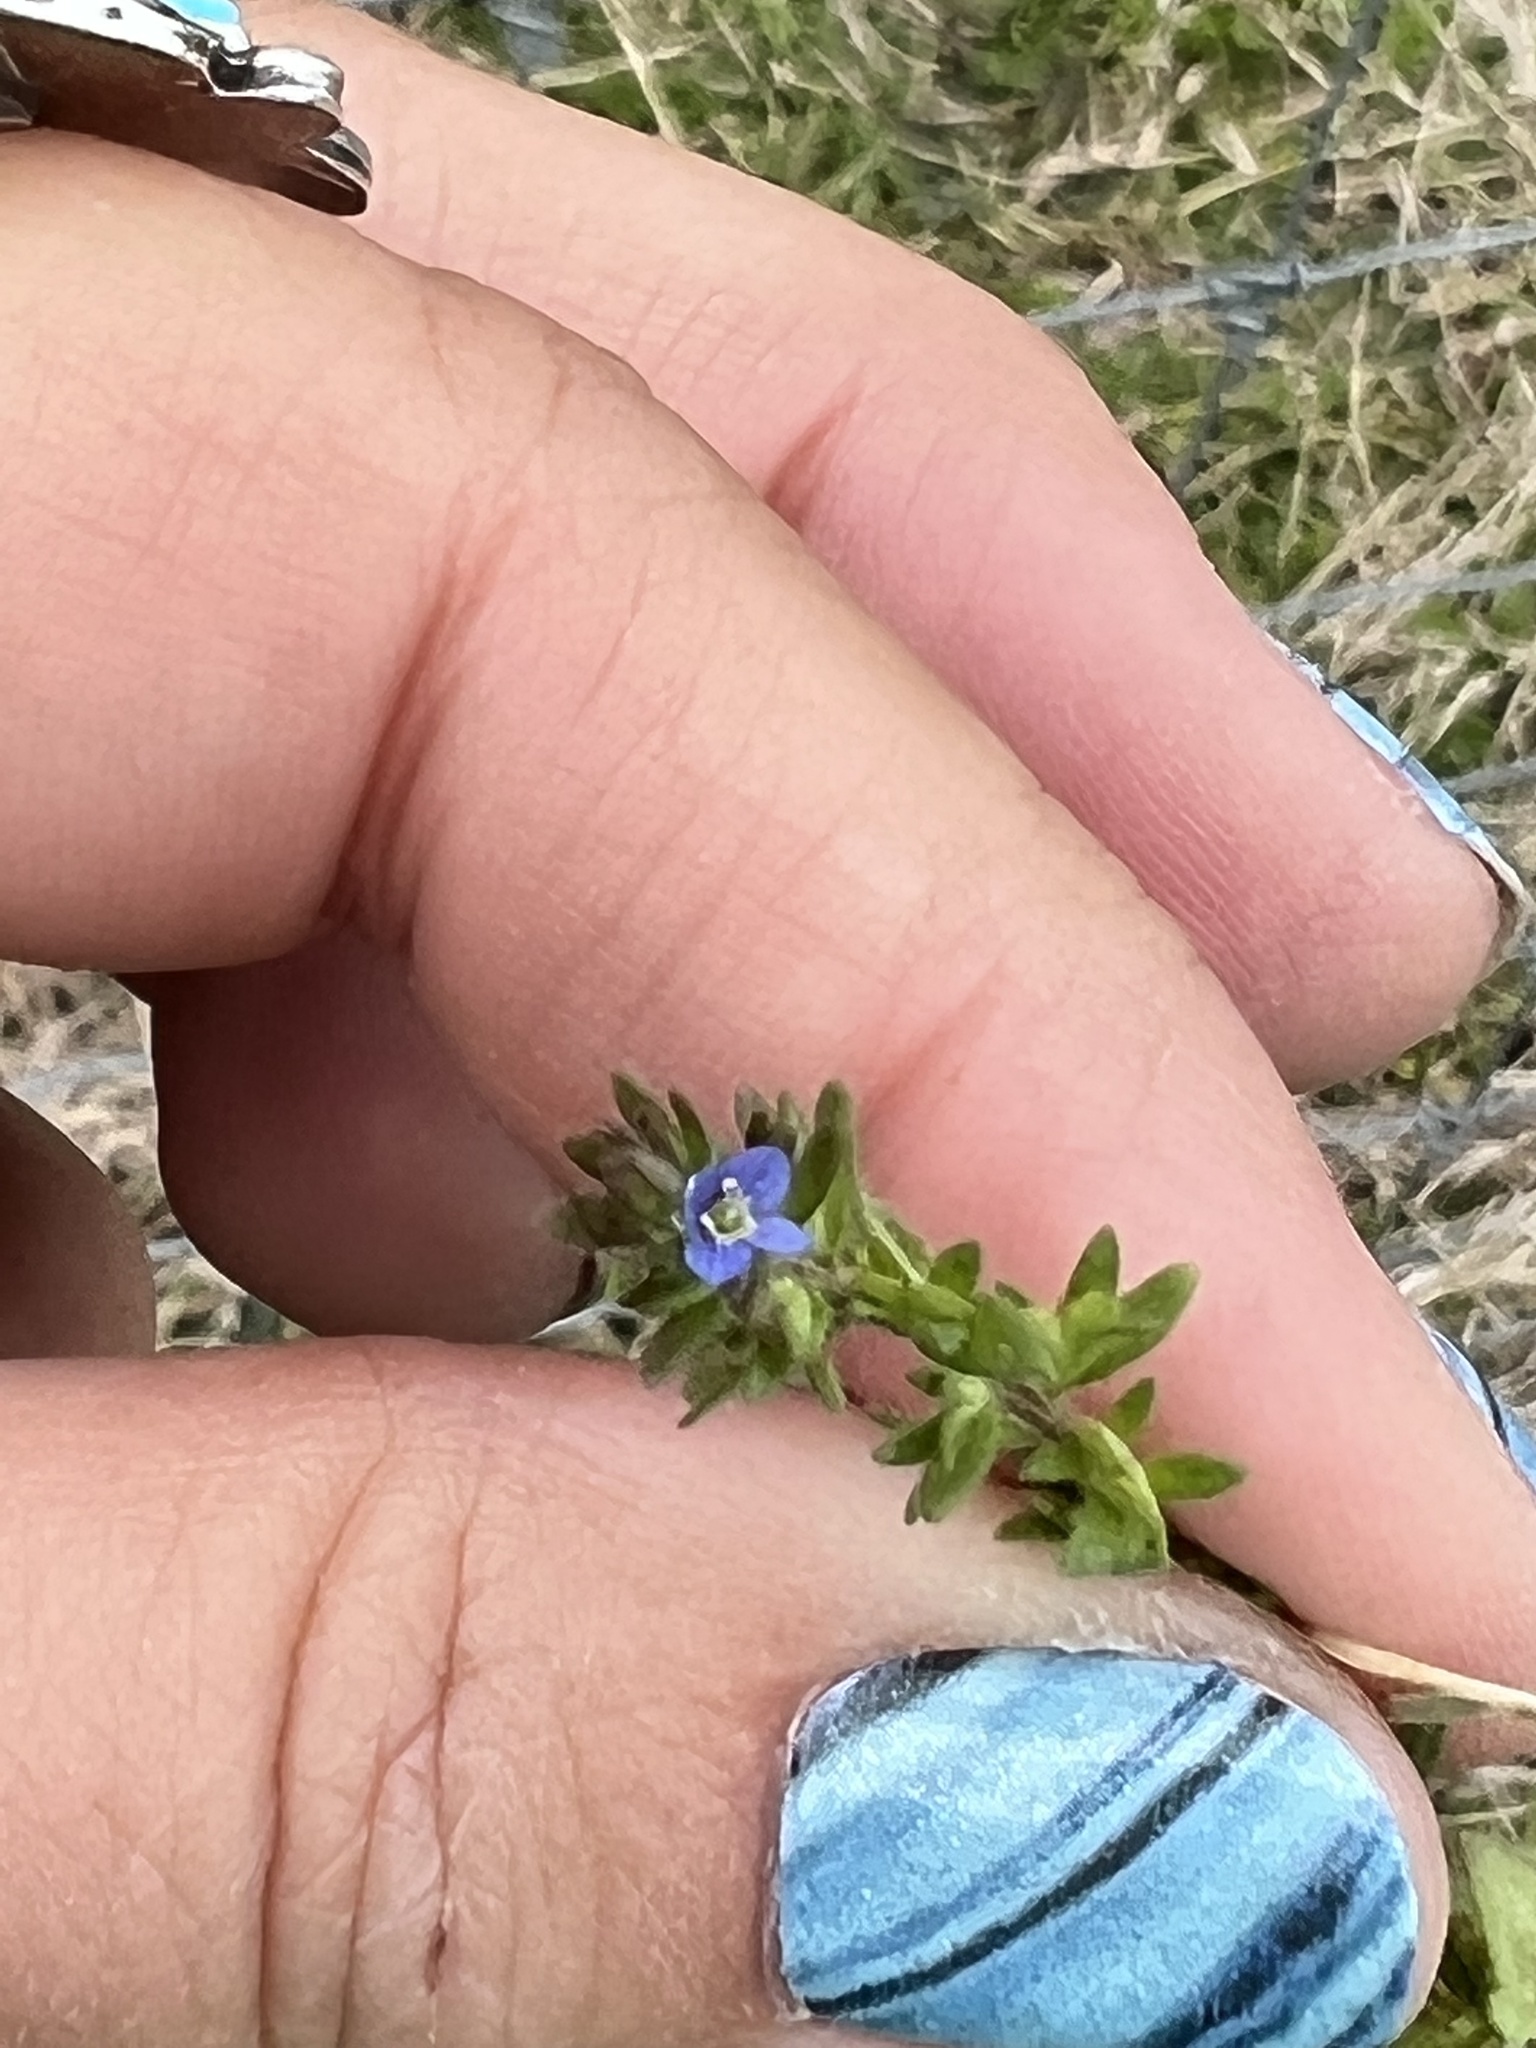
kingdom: Plantae
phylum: Tracheophyta
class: Magnoliopsida
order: Lamiales
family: Plantaginaceae
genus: Veronica
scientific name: Veronica arvensis
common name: Corn speedwell
